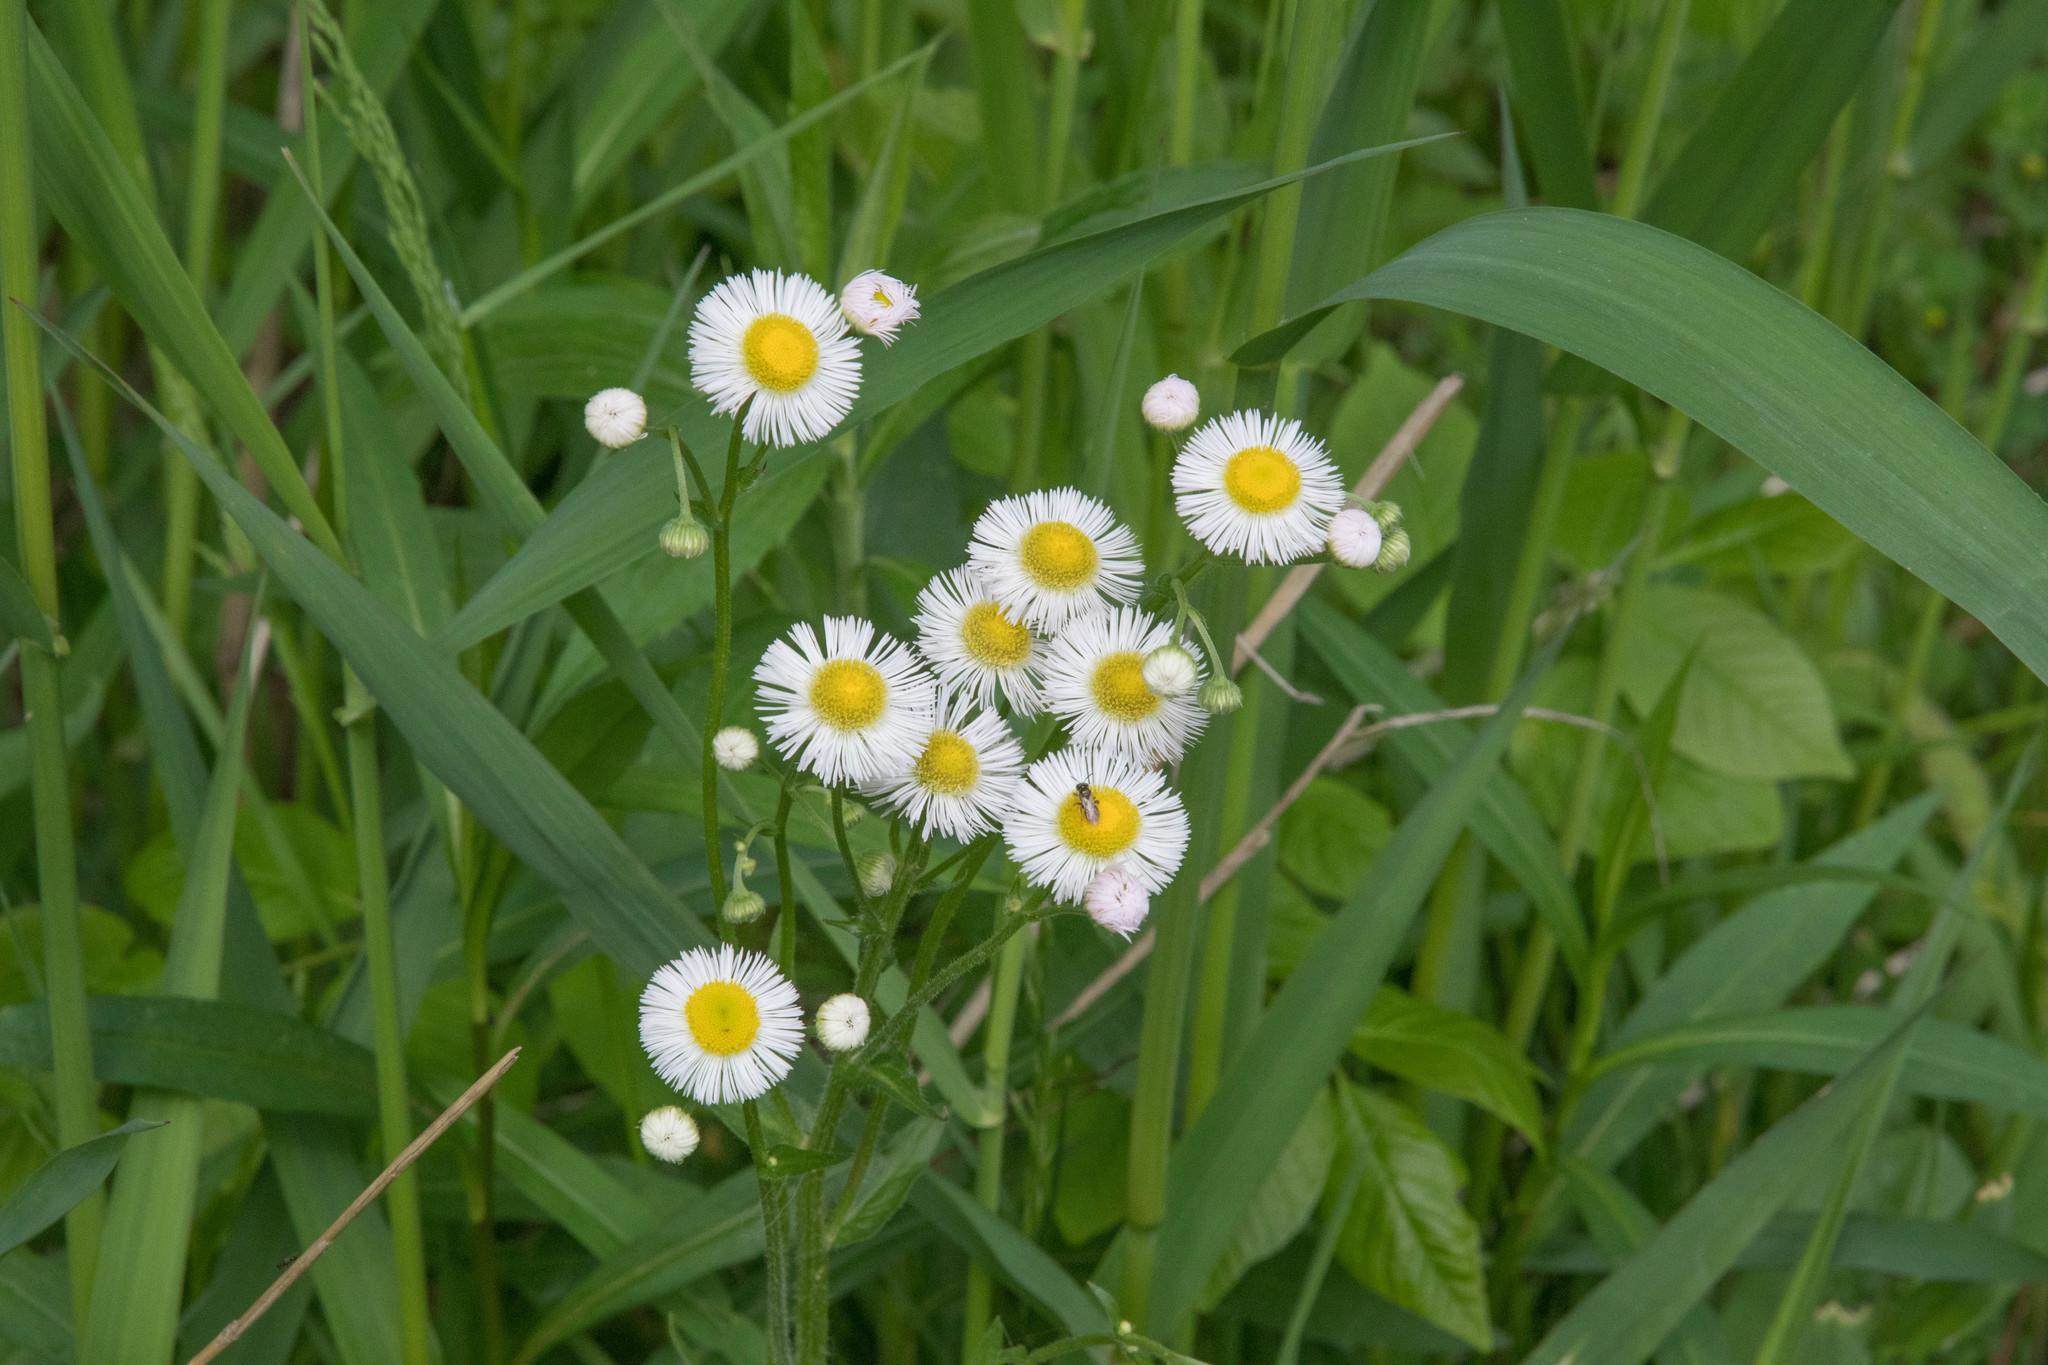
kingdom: Plantae
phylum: Tracheophyta
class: Magnoliopsida
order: Asterales
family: Asteraceae
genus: Erigeron
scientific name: Erigeron philadelphicus
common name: Robin's-plantain
